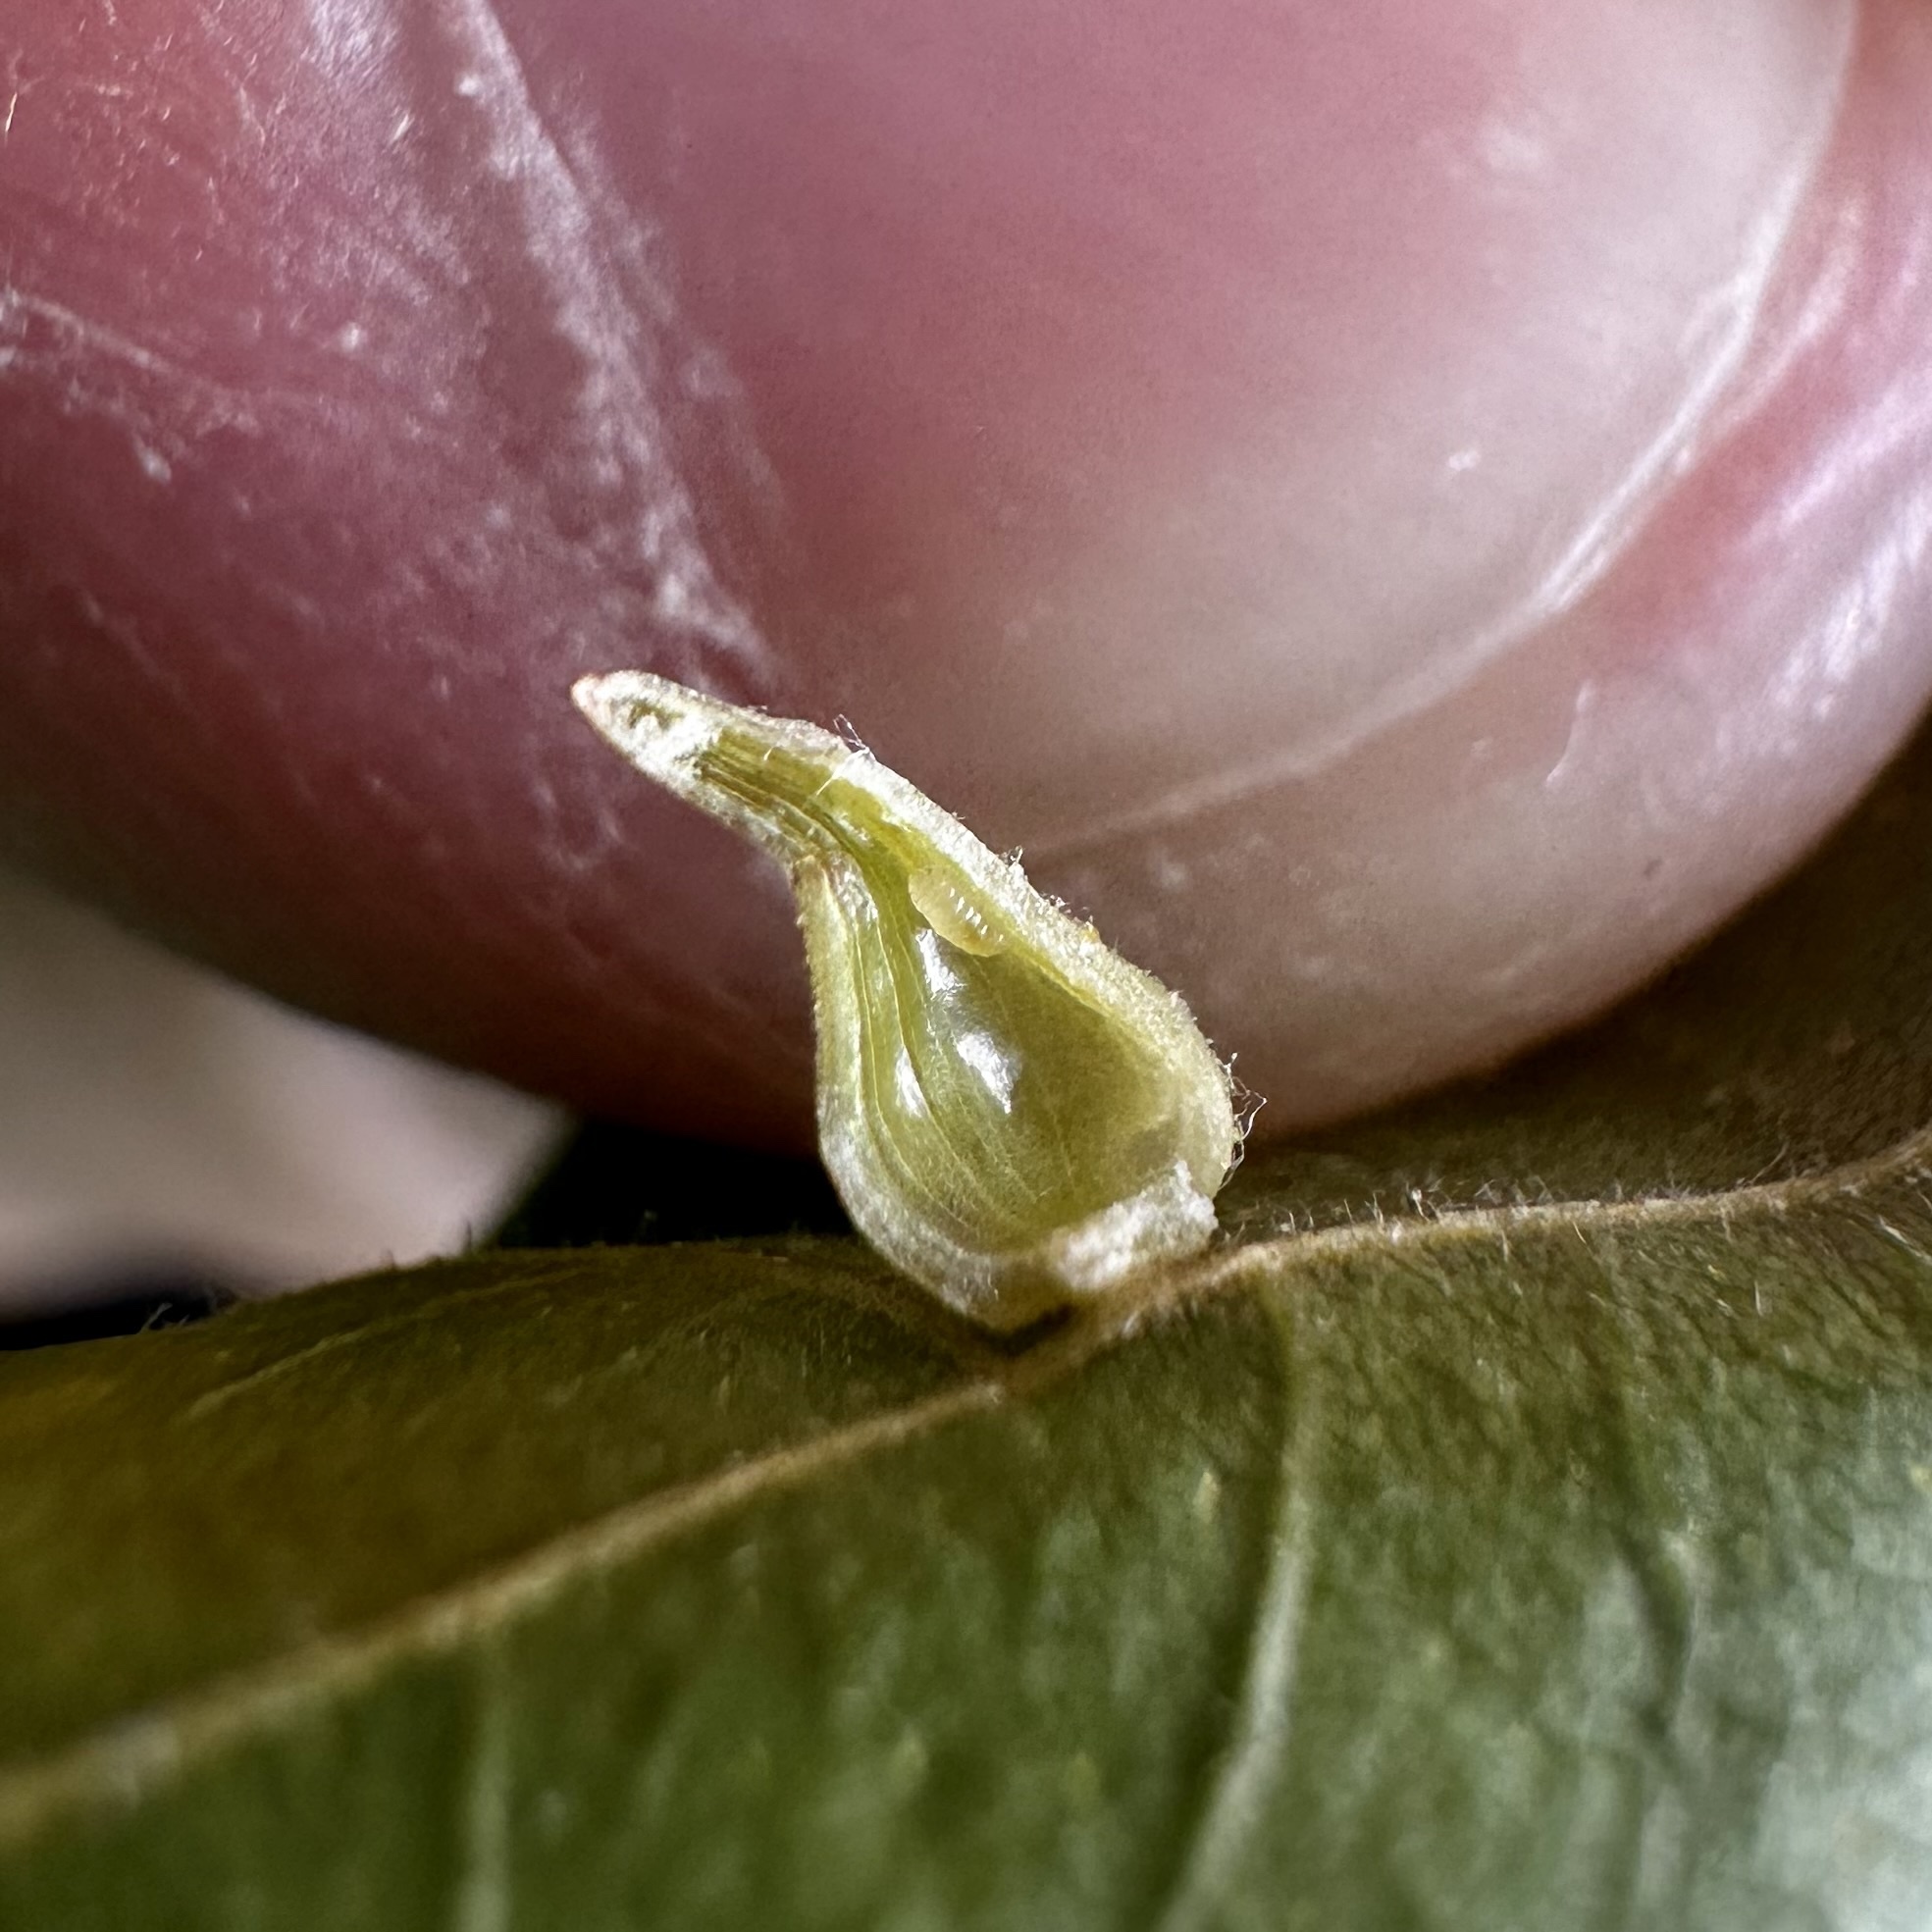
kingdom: Animalia
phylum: Arthropoda
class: Insecta
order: Diptera
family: Cecidomyiidae
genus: Caryomyia
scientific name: Caryomyia spinulosa
